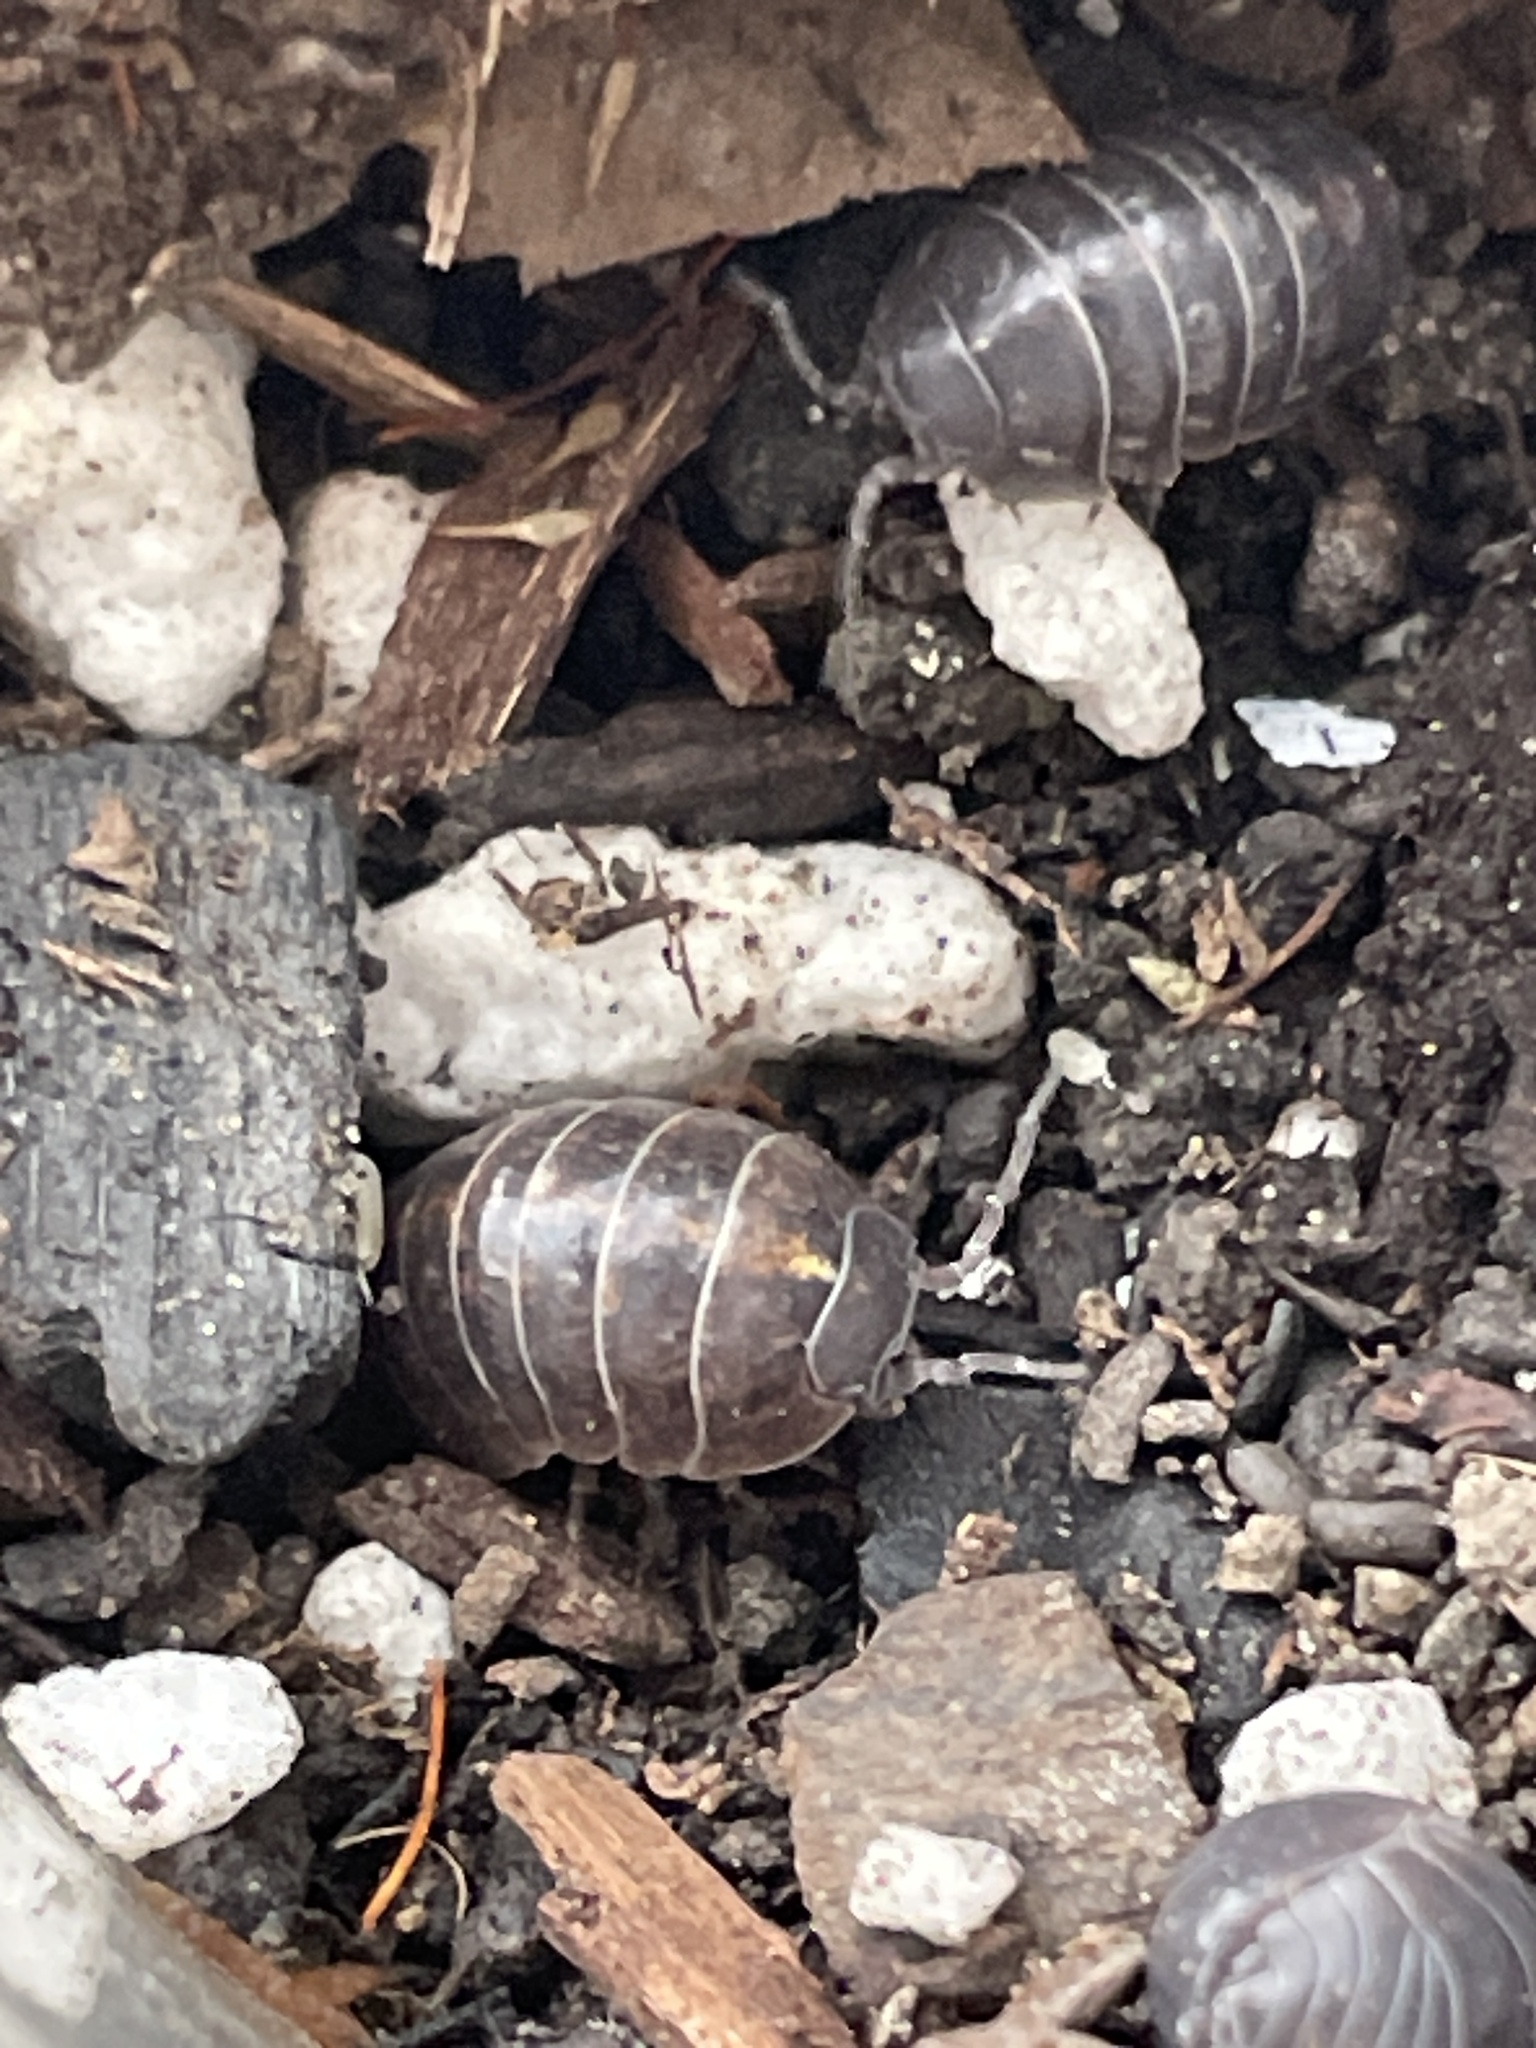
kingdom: Animalia
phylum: Arthropoda
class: Malacostraca
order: Isopoda
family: Armadillidiidae
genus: Armadillidium
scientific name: Armadillidium vulgare
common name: Common pill woodlouse
